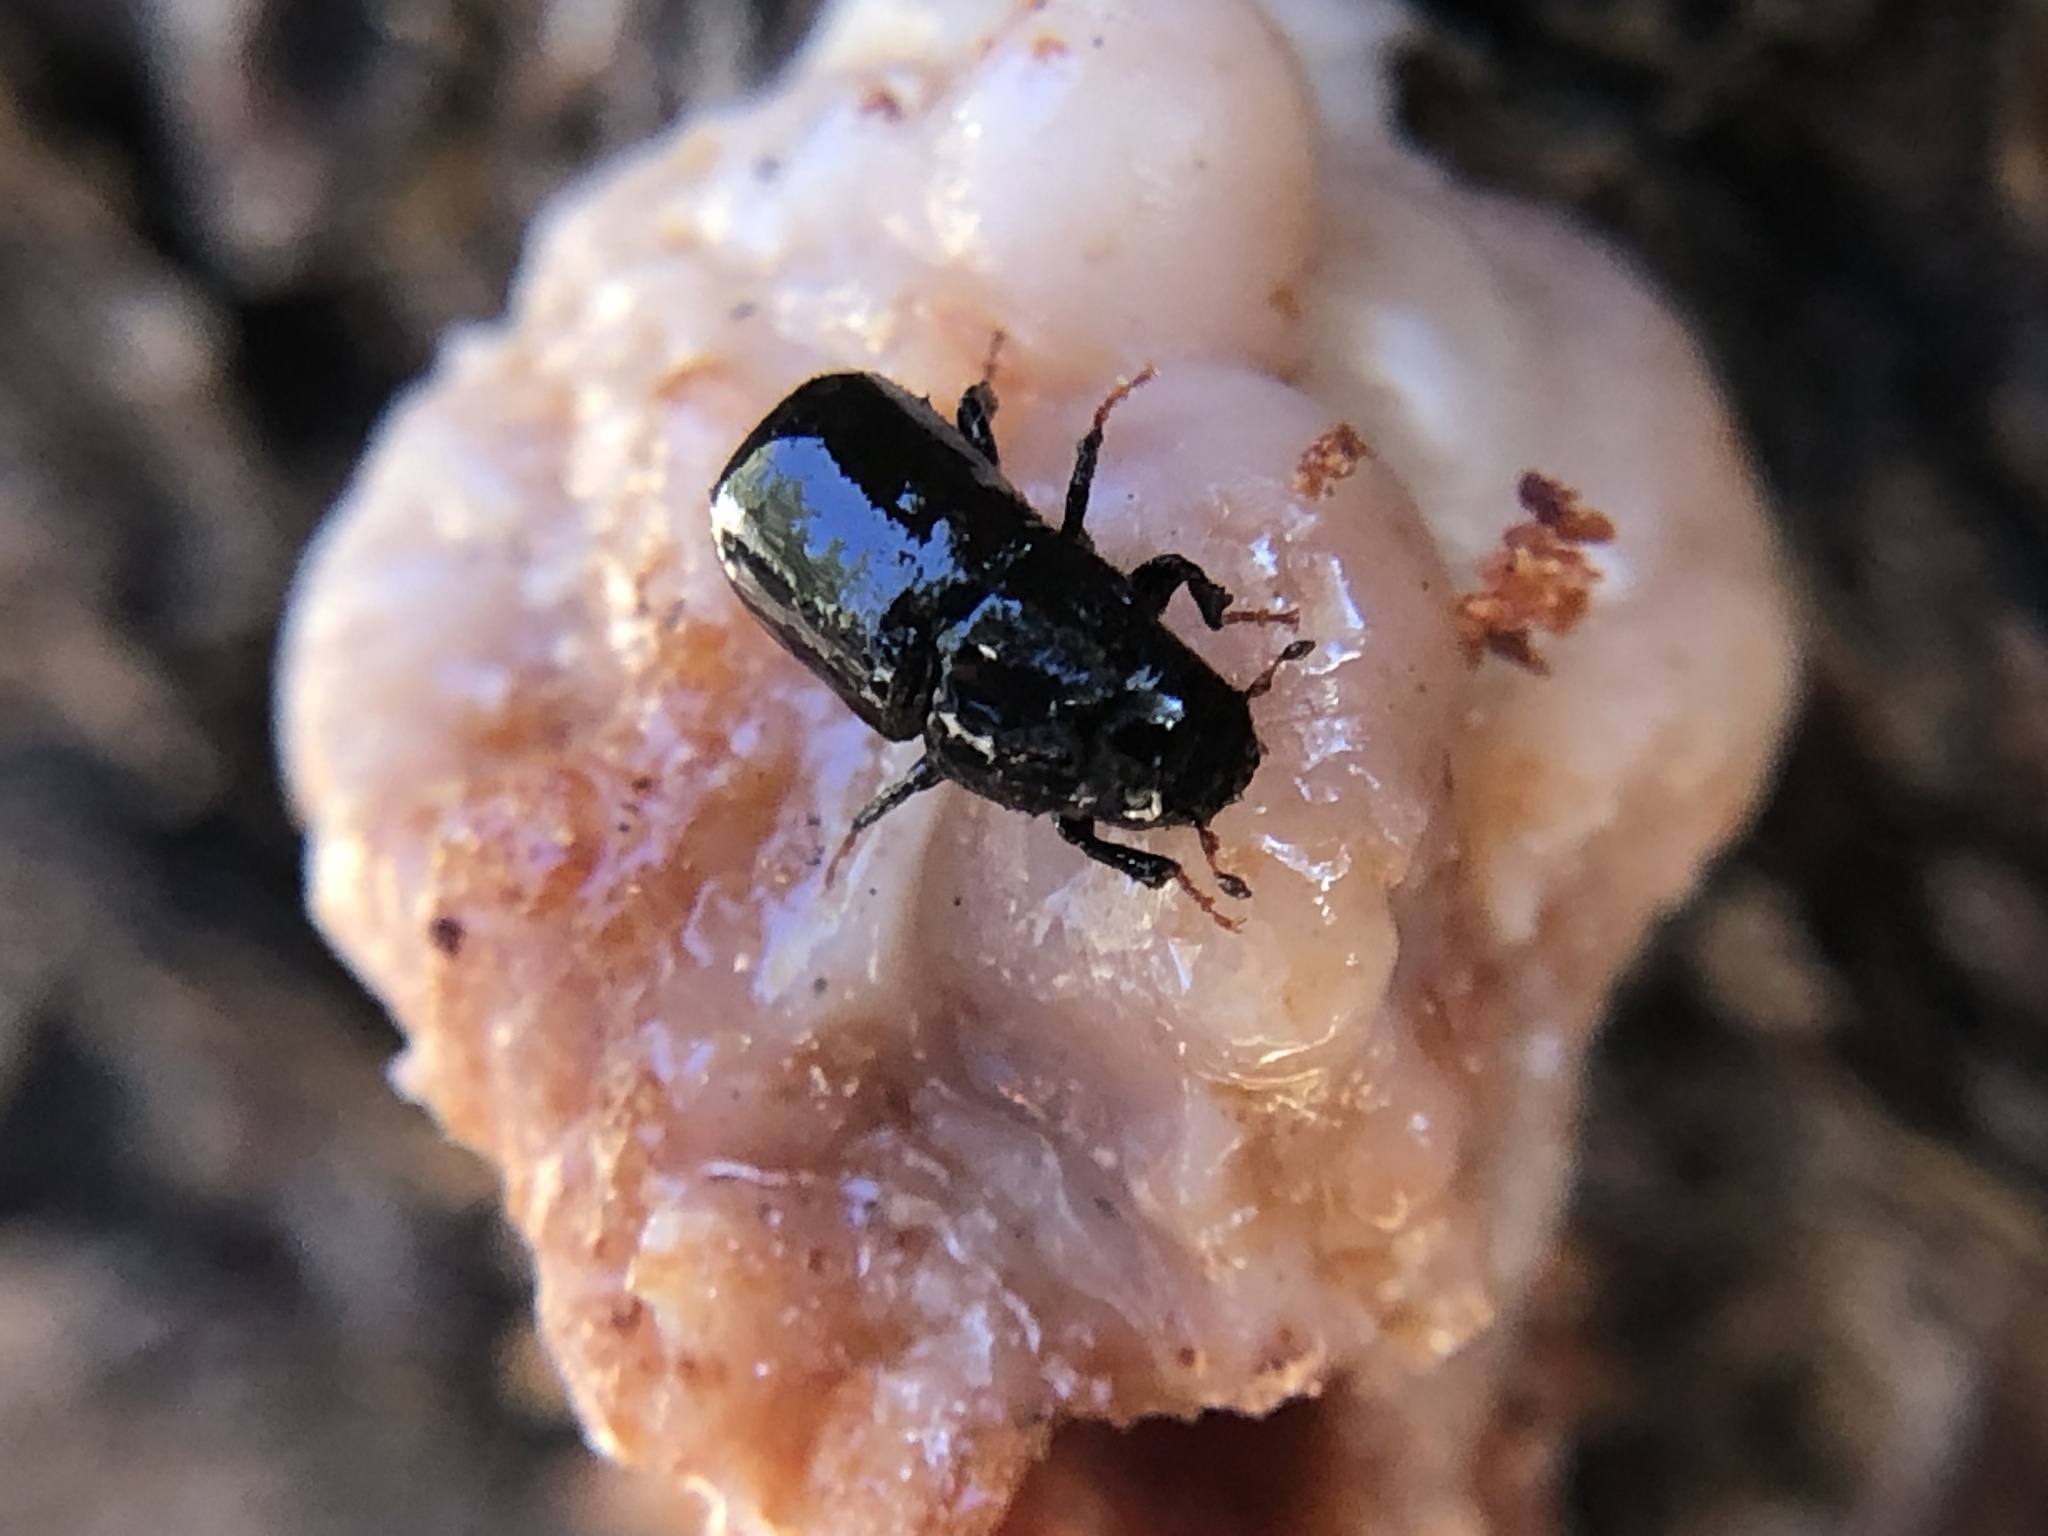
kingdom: Animalia
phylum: Arthropoda
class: Insecta
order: Coleoptera
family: Curculionidae
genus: Dendroctonus
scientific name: Dendroctonus ponderosae
